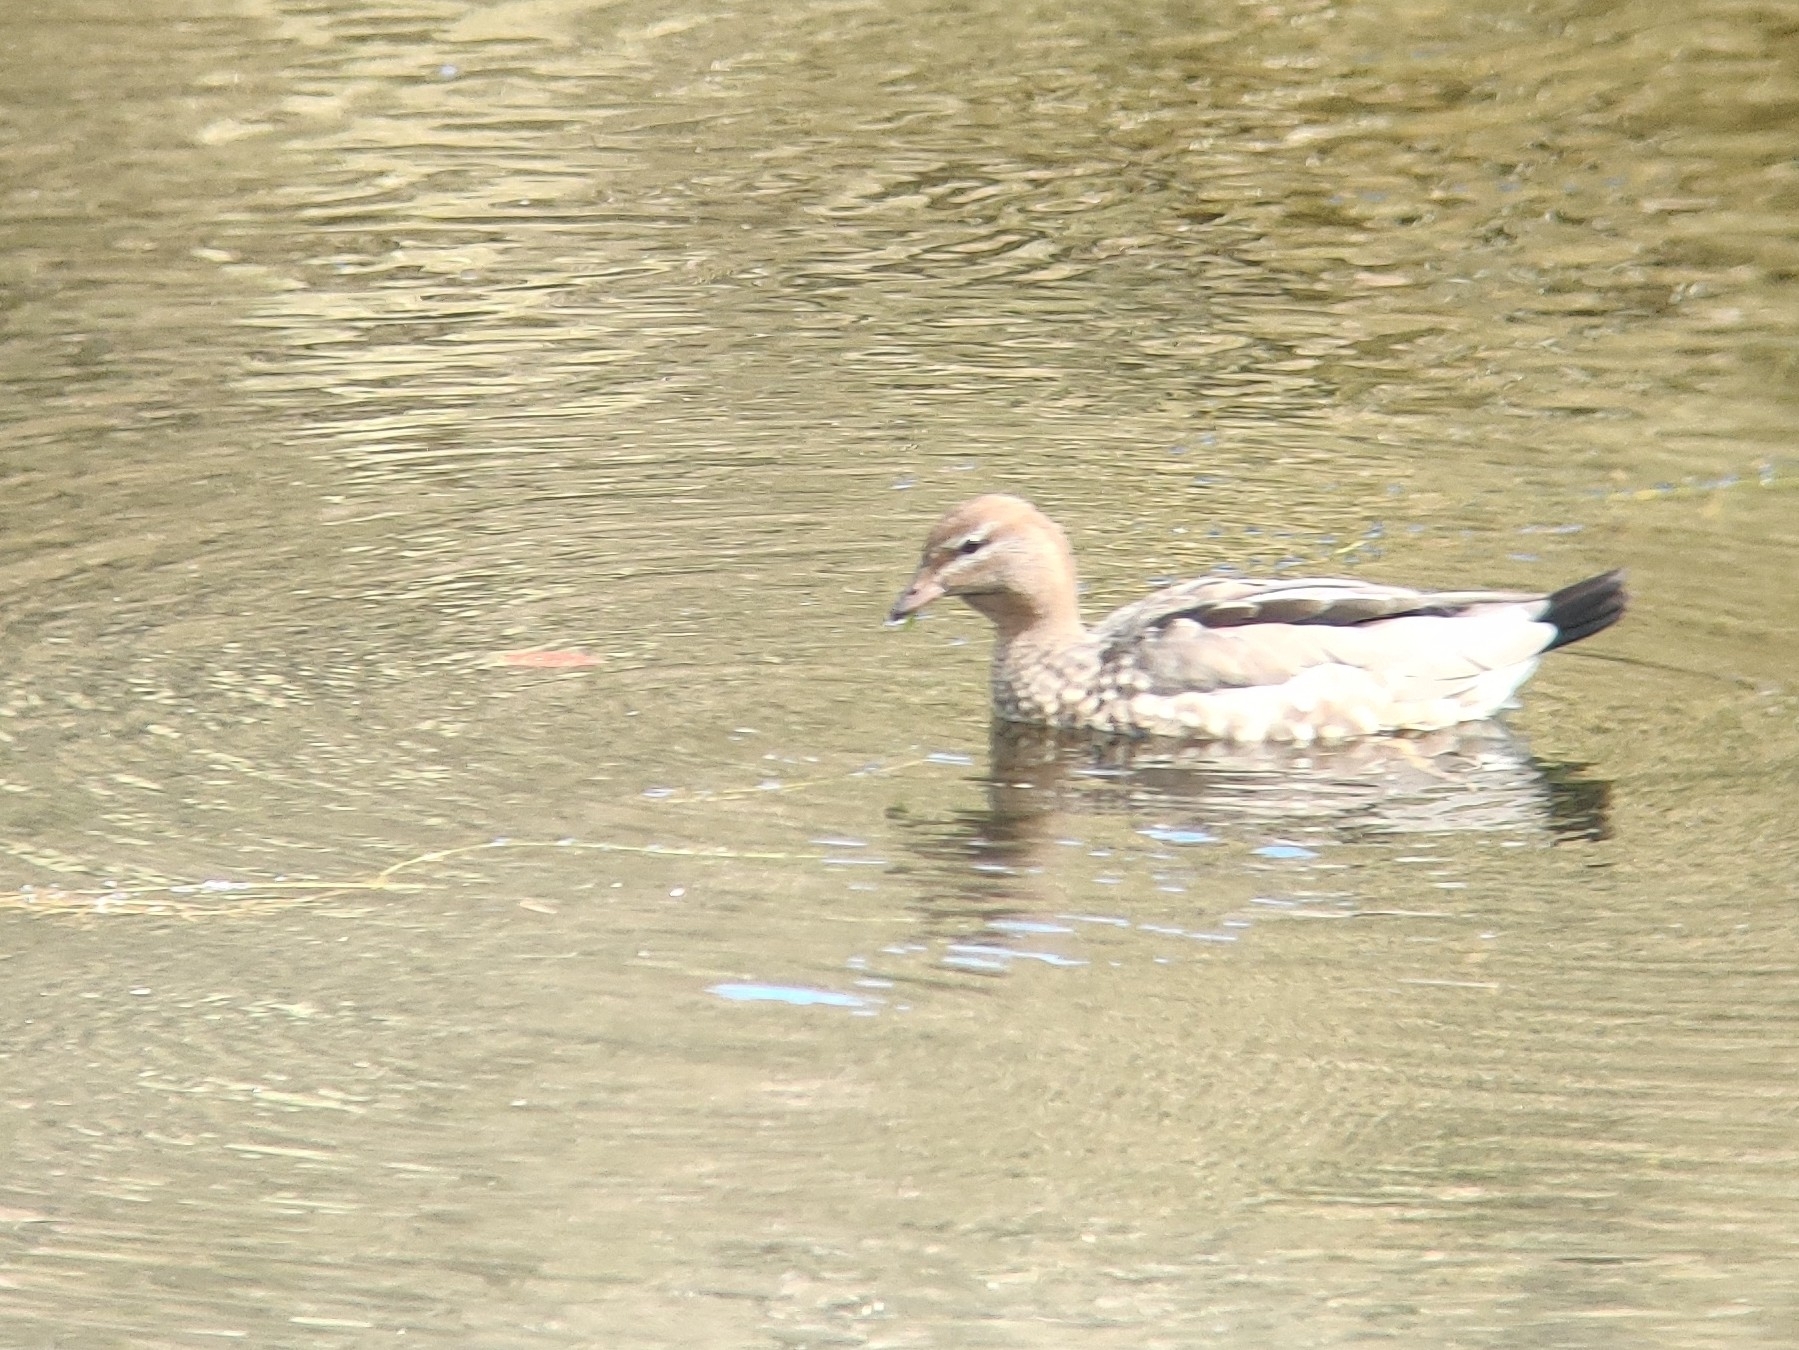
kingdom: Animalia
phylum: Chordata
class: Aves
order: Anseriformes
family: Anatidae
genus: Chenonetta
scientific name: Chenonetta jubata
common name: Maned duck
